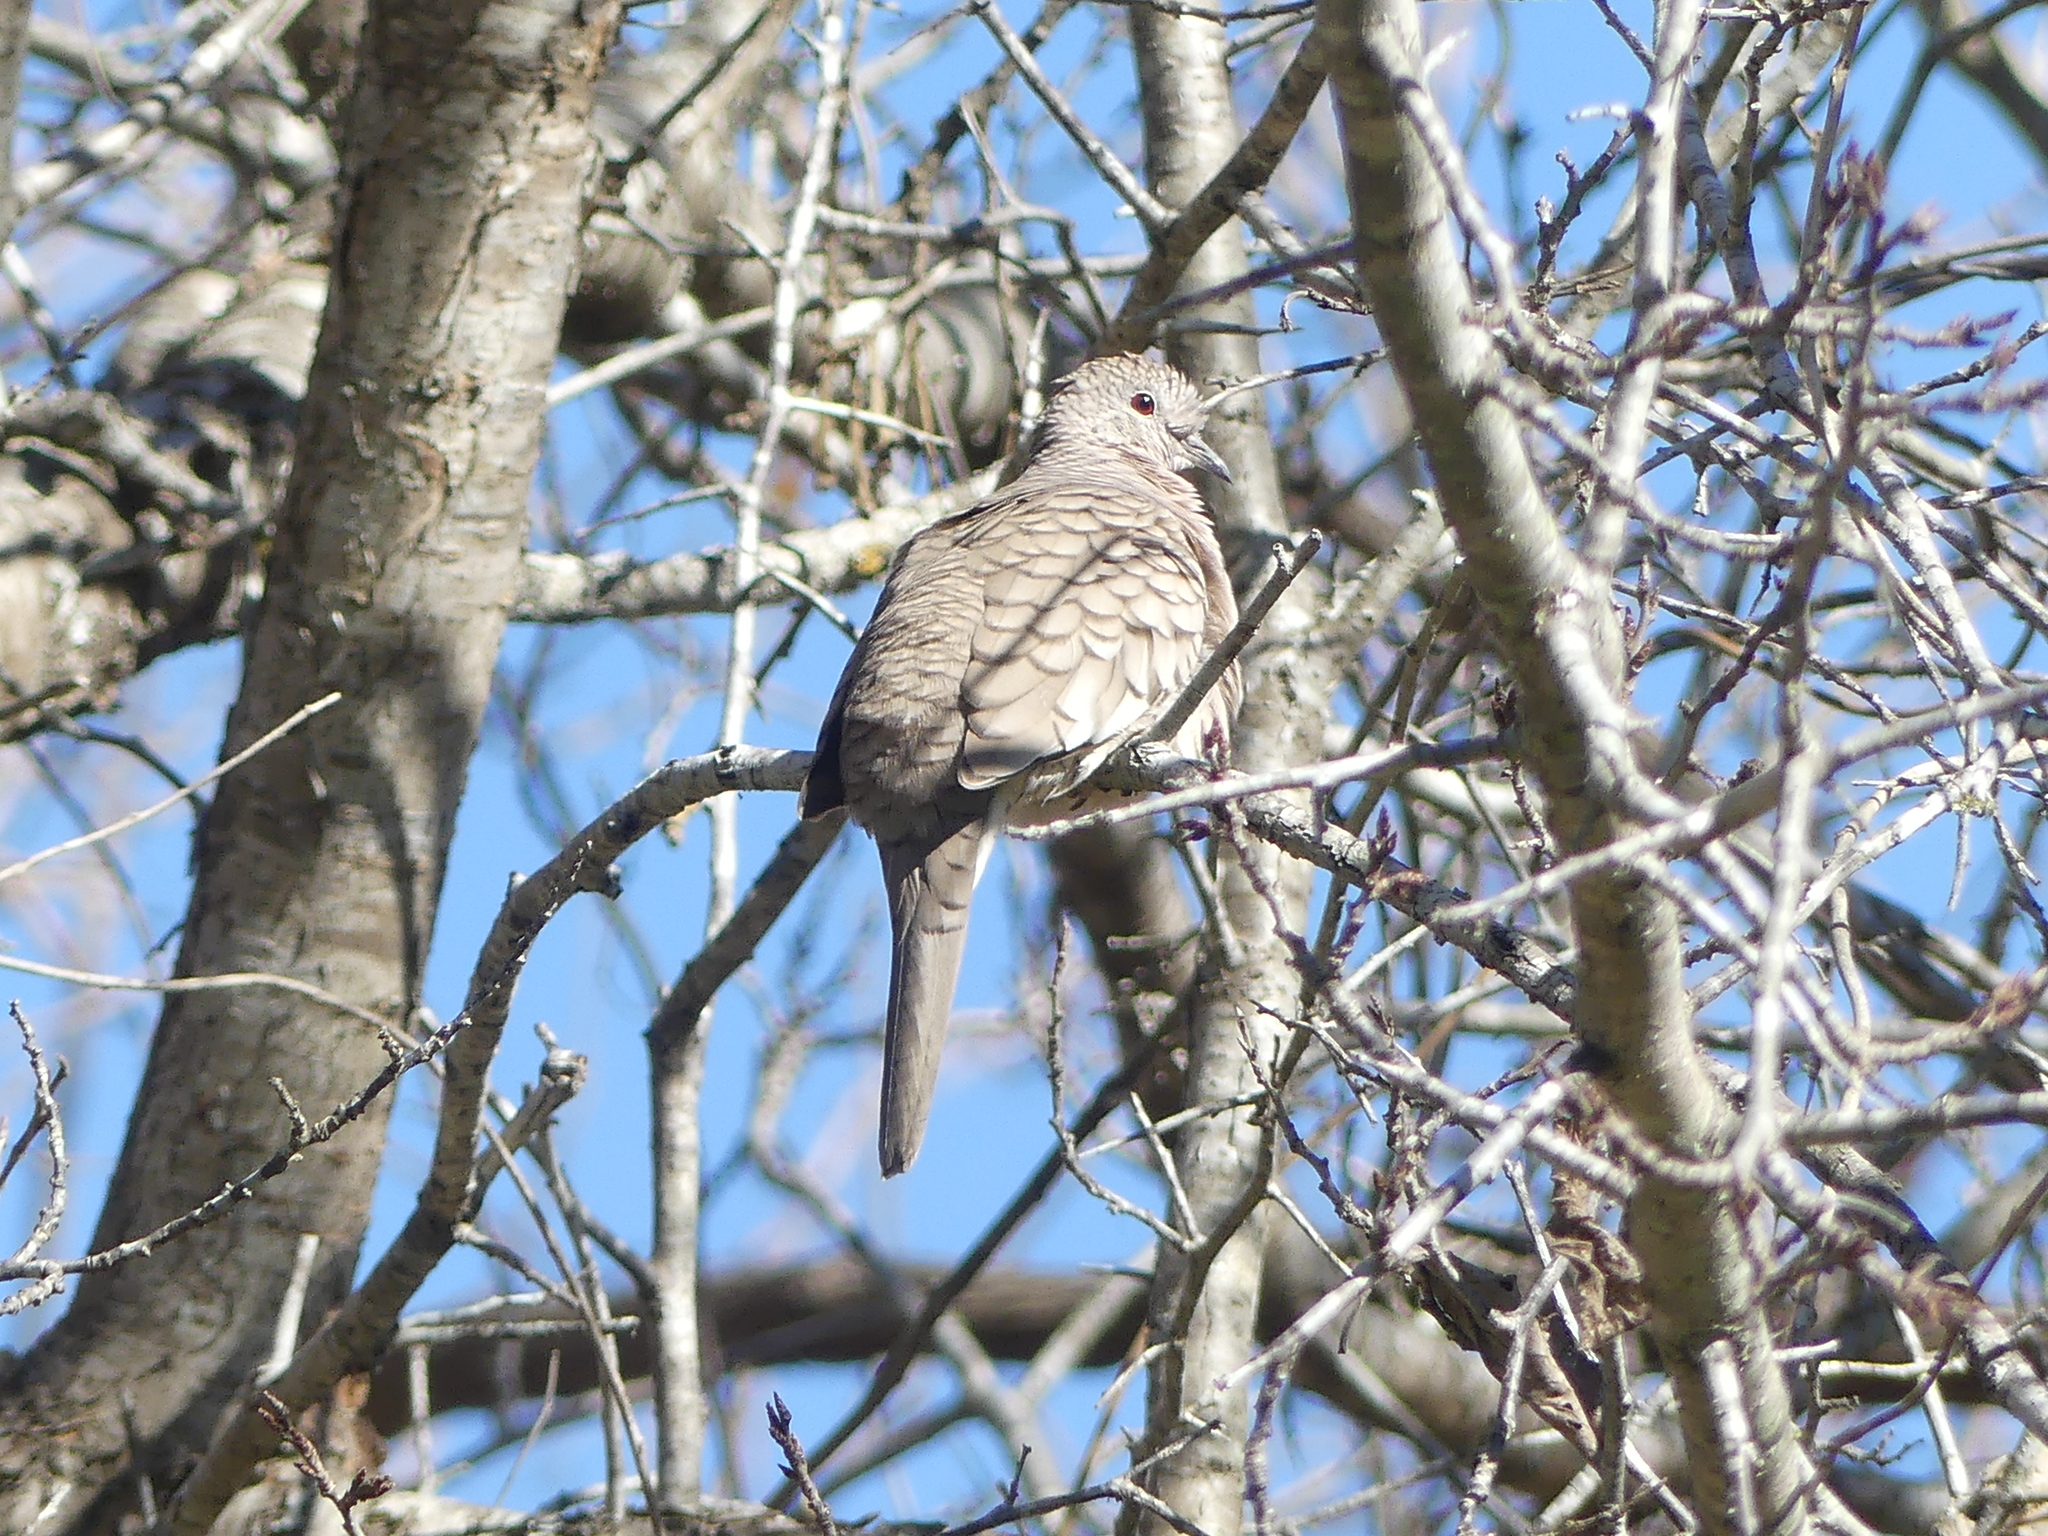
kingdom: Animalia
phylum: Chordata
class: Aves
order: Columbiformes
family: Columbidae
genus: Columbina
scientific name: Columbina inca
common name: Inca dove
